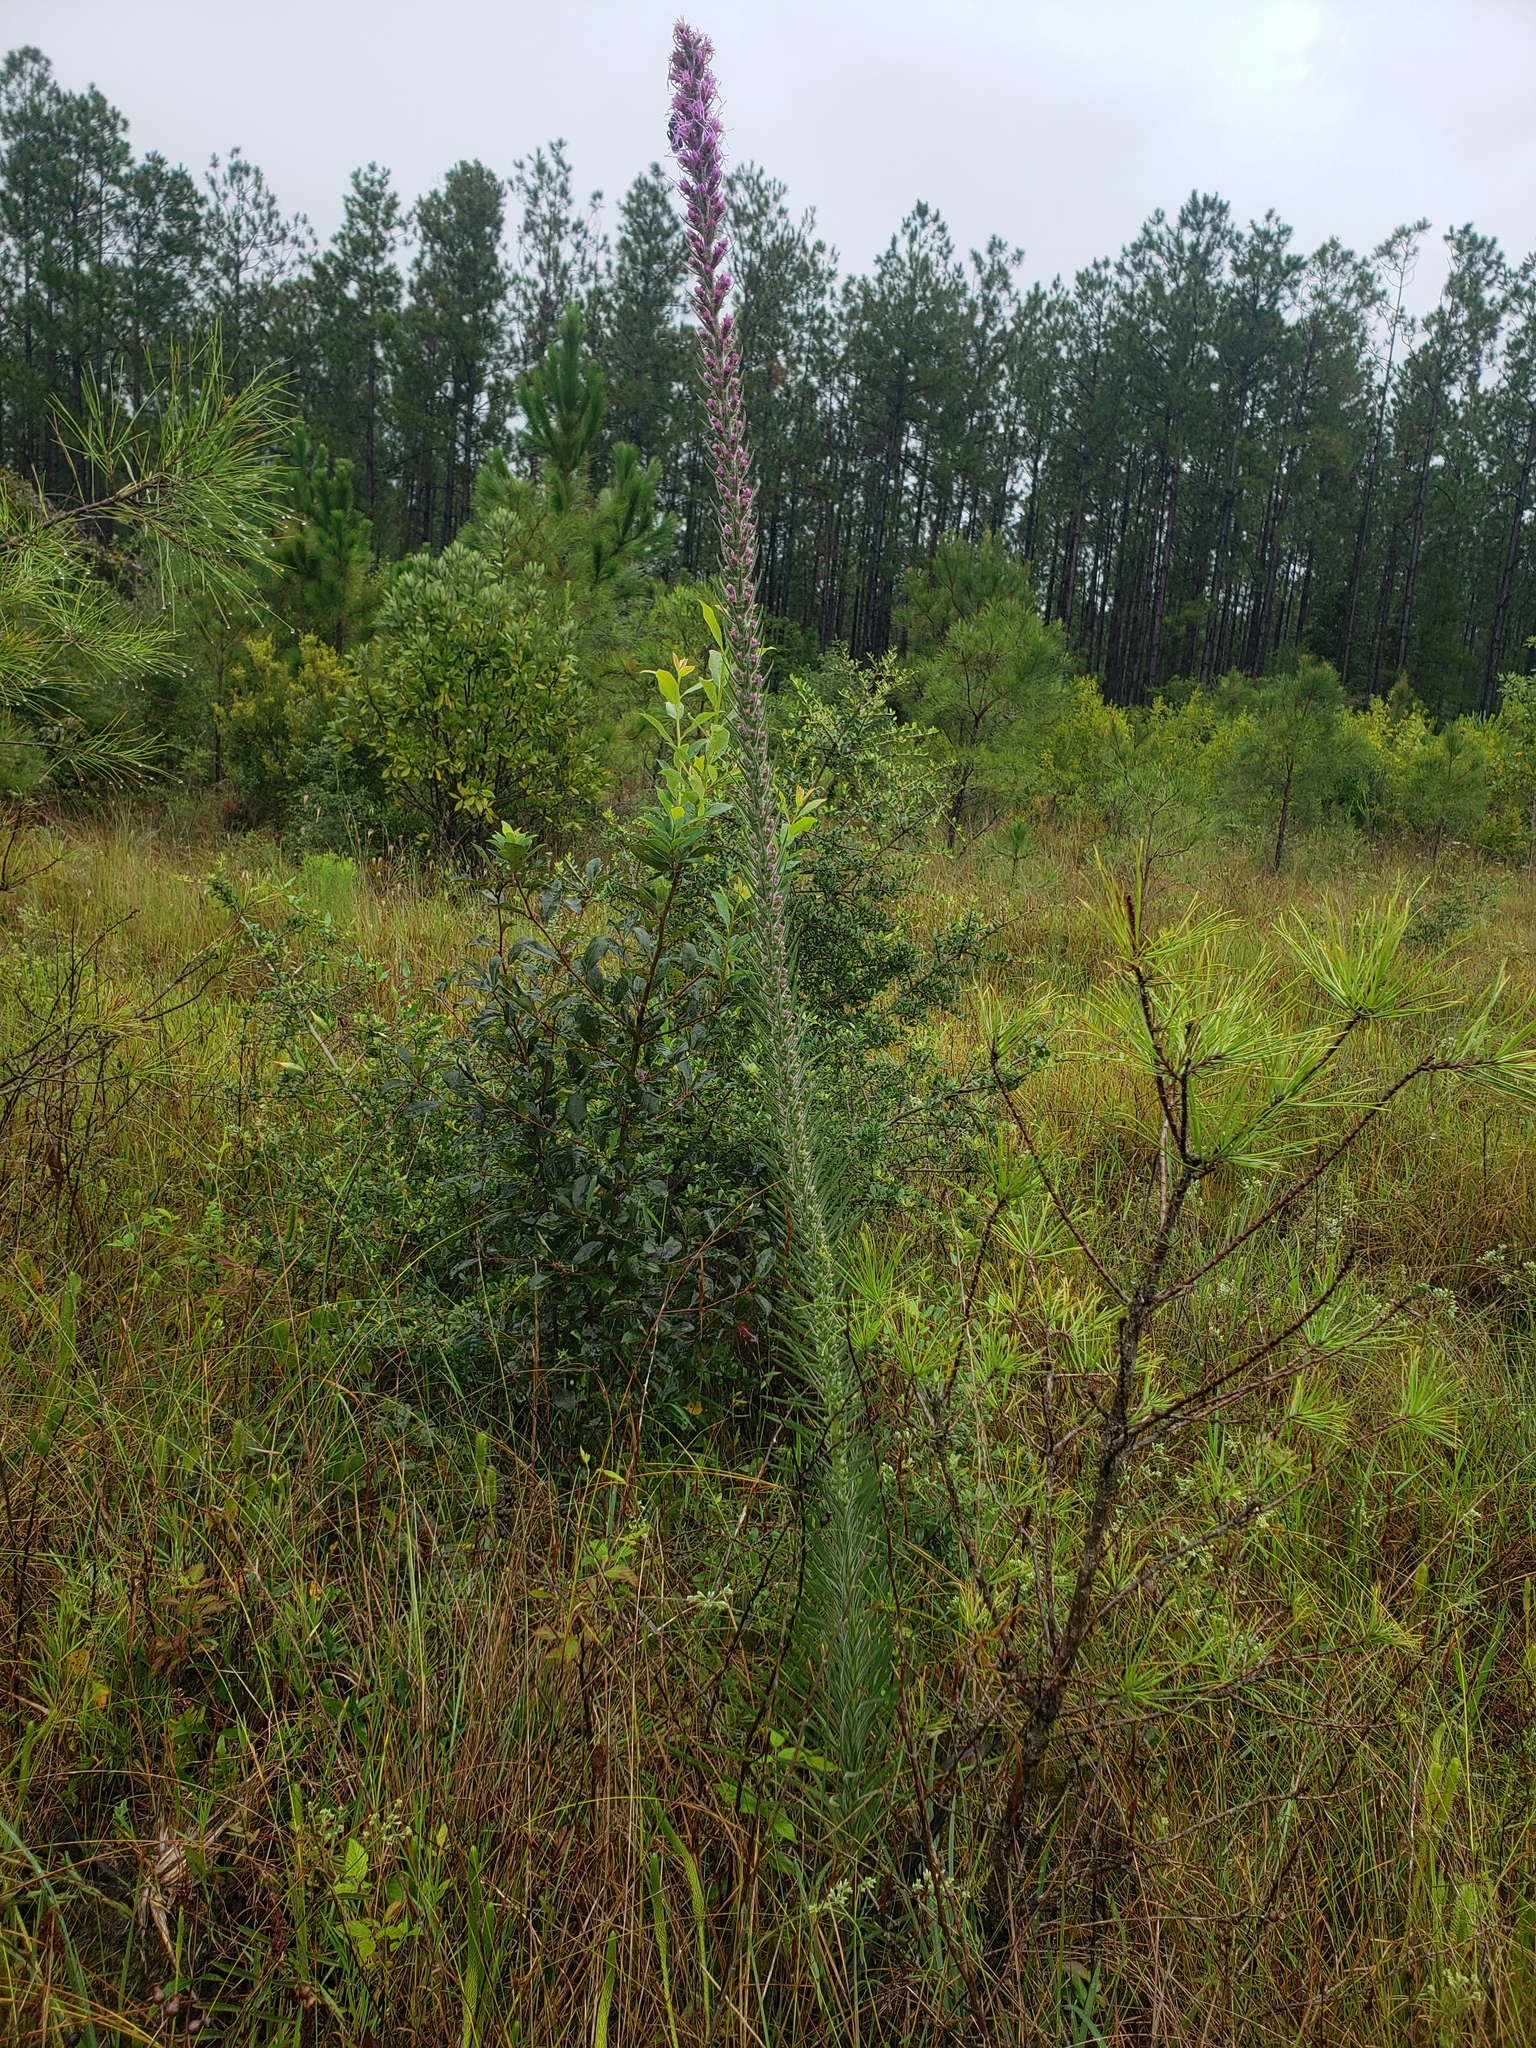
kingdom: Plantae
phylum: Tracheophyta
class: Magnoliopsida
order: Asterales
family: Asteraceae
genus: Liatris
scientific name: Liatris pycnostachya
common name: Cattail gayfeather
